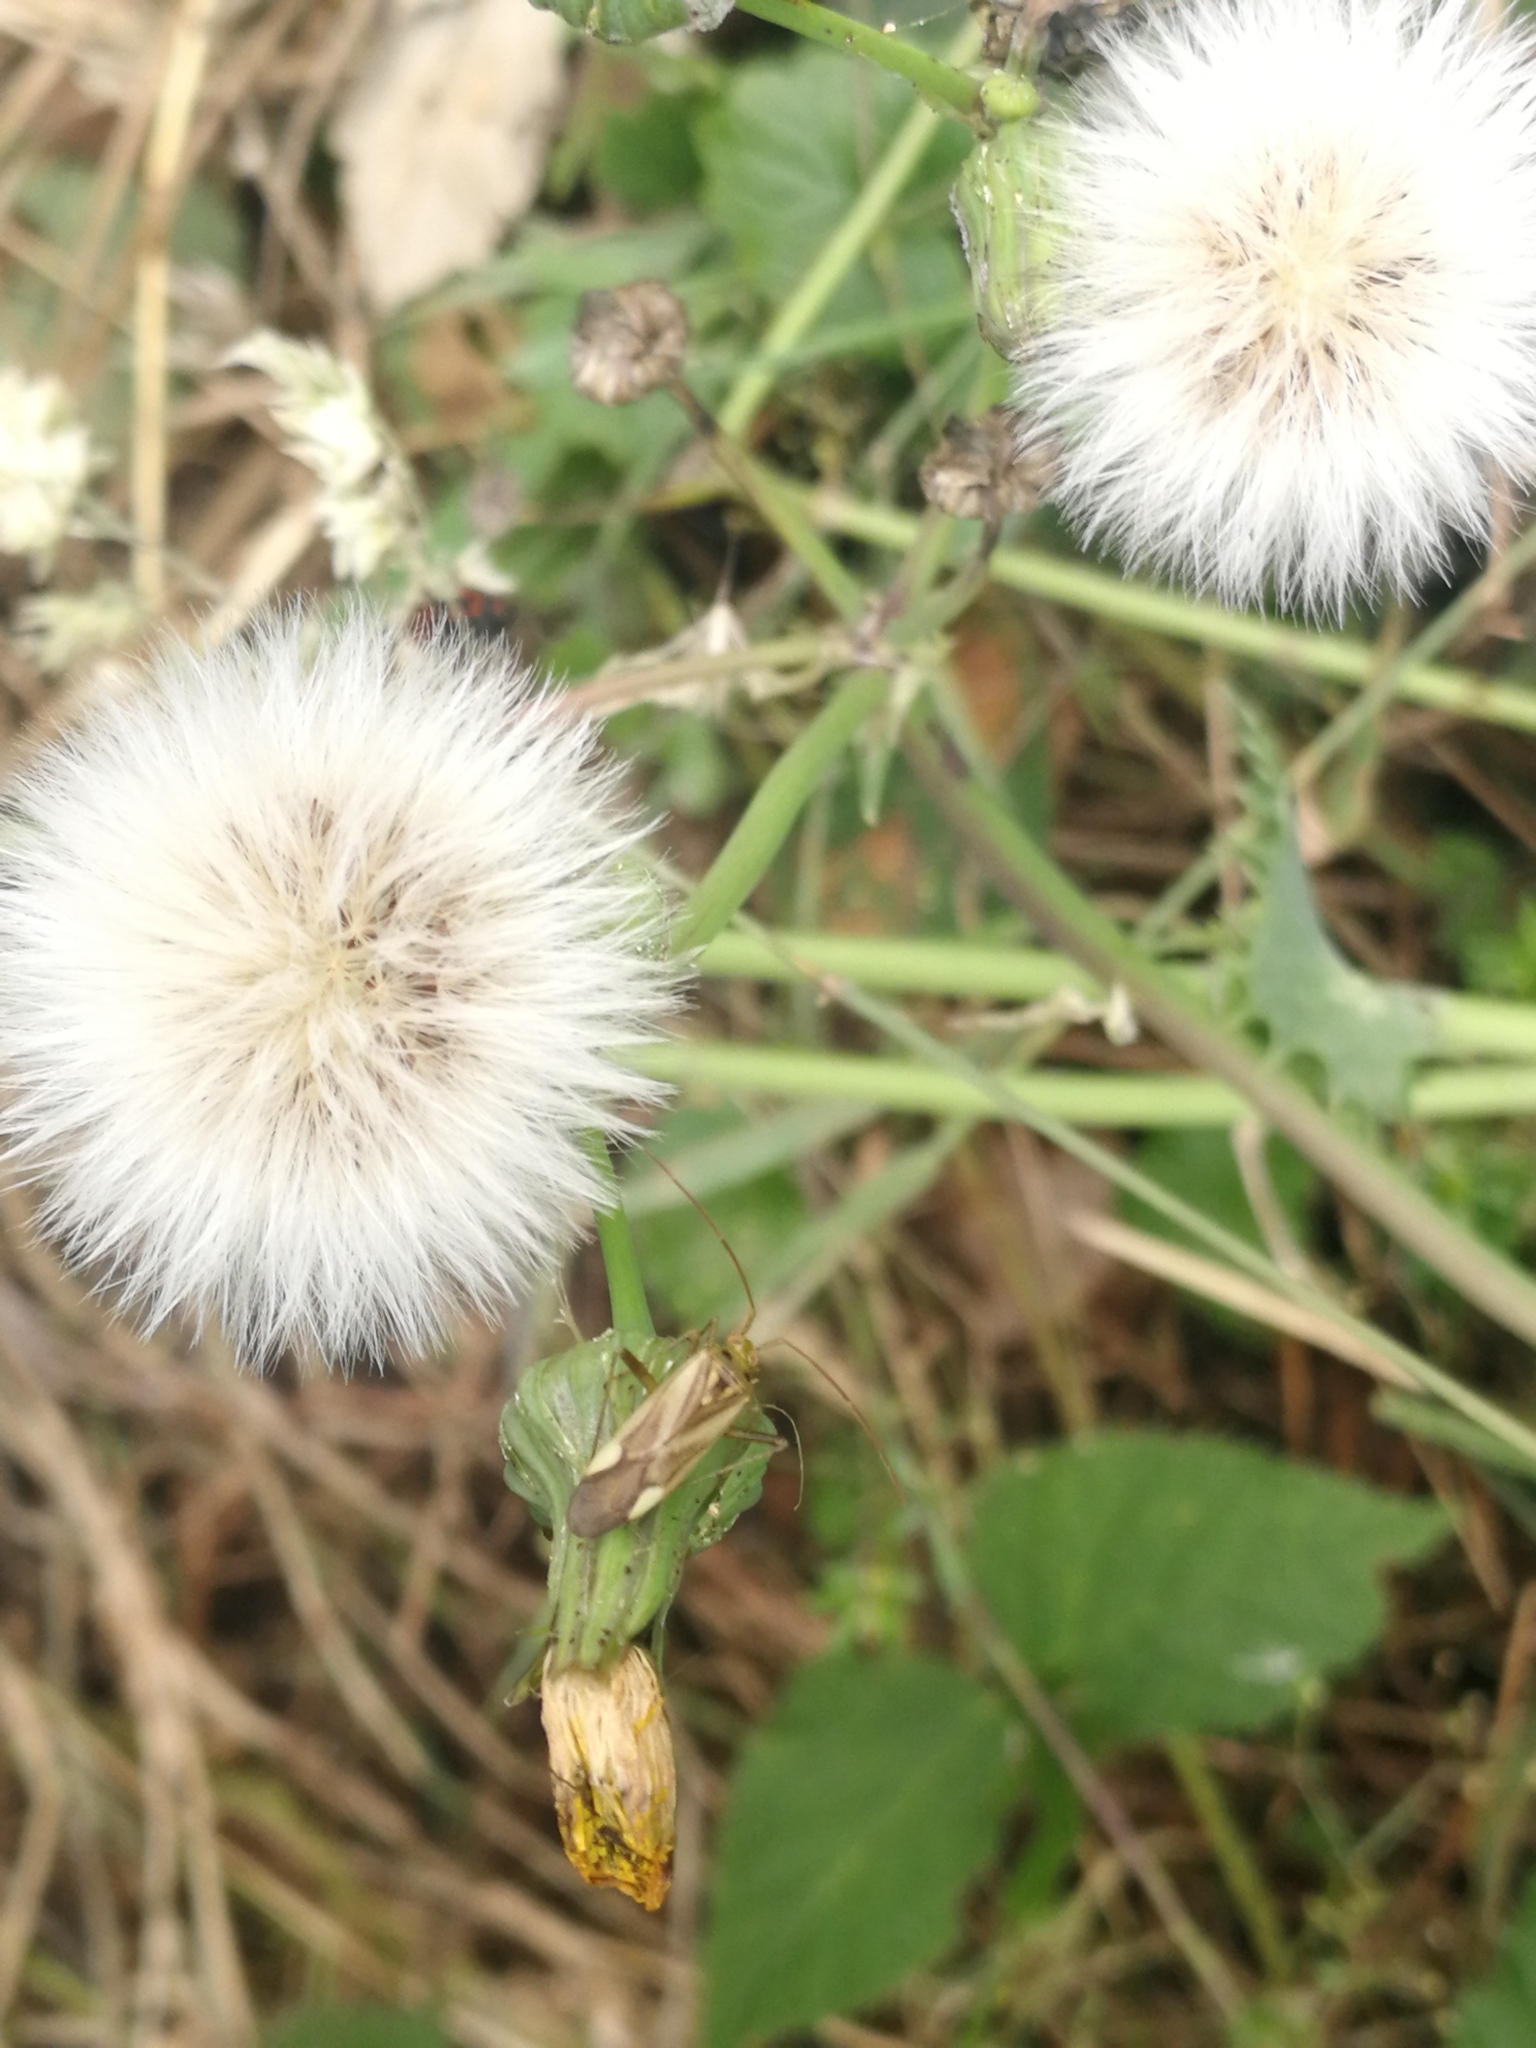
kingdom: Animalia
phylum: Arthropoda
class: Insecta
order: Hemiptera
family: Miridae
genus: Adelphocoris
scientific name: Adelphocoris lineolatus
